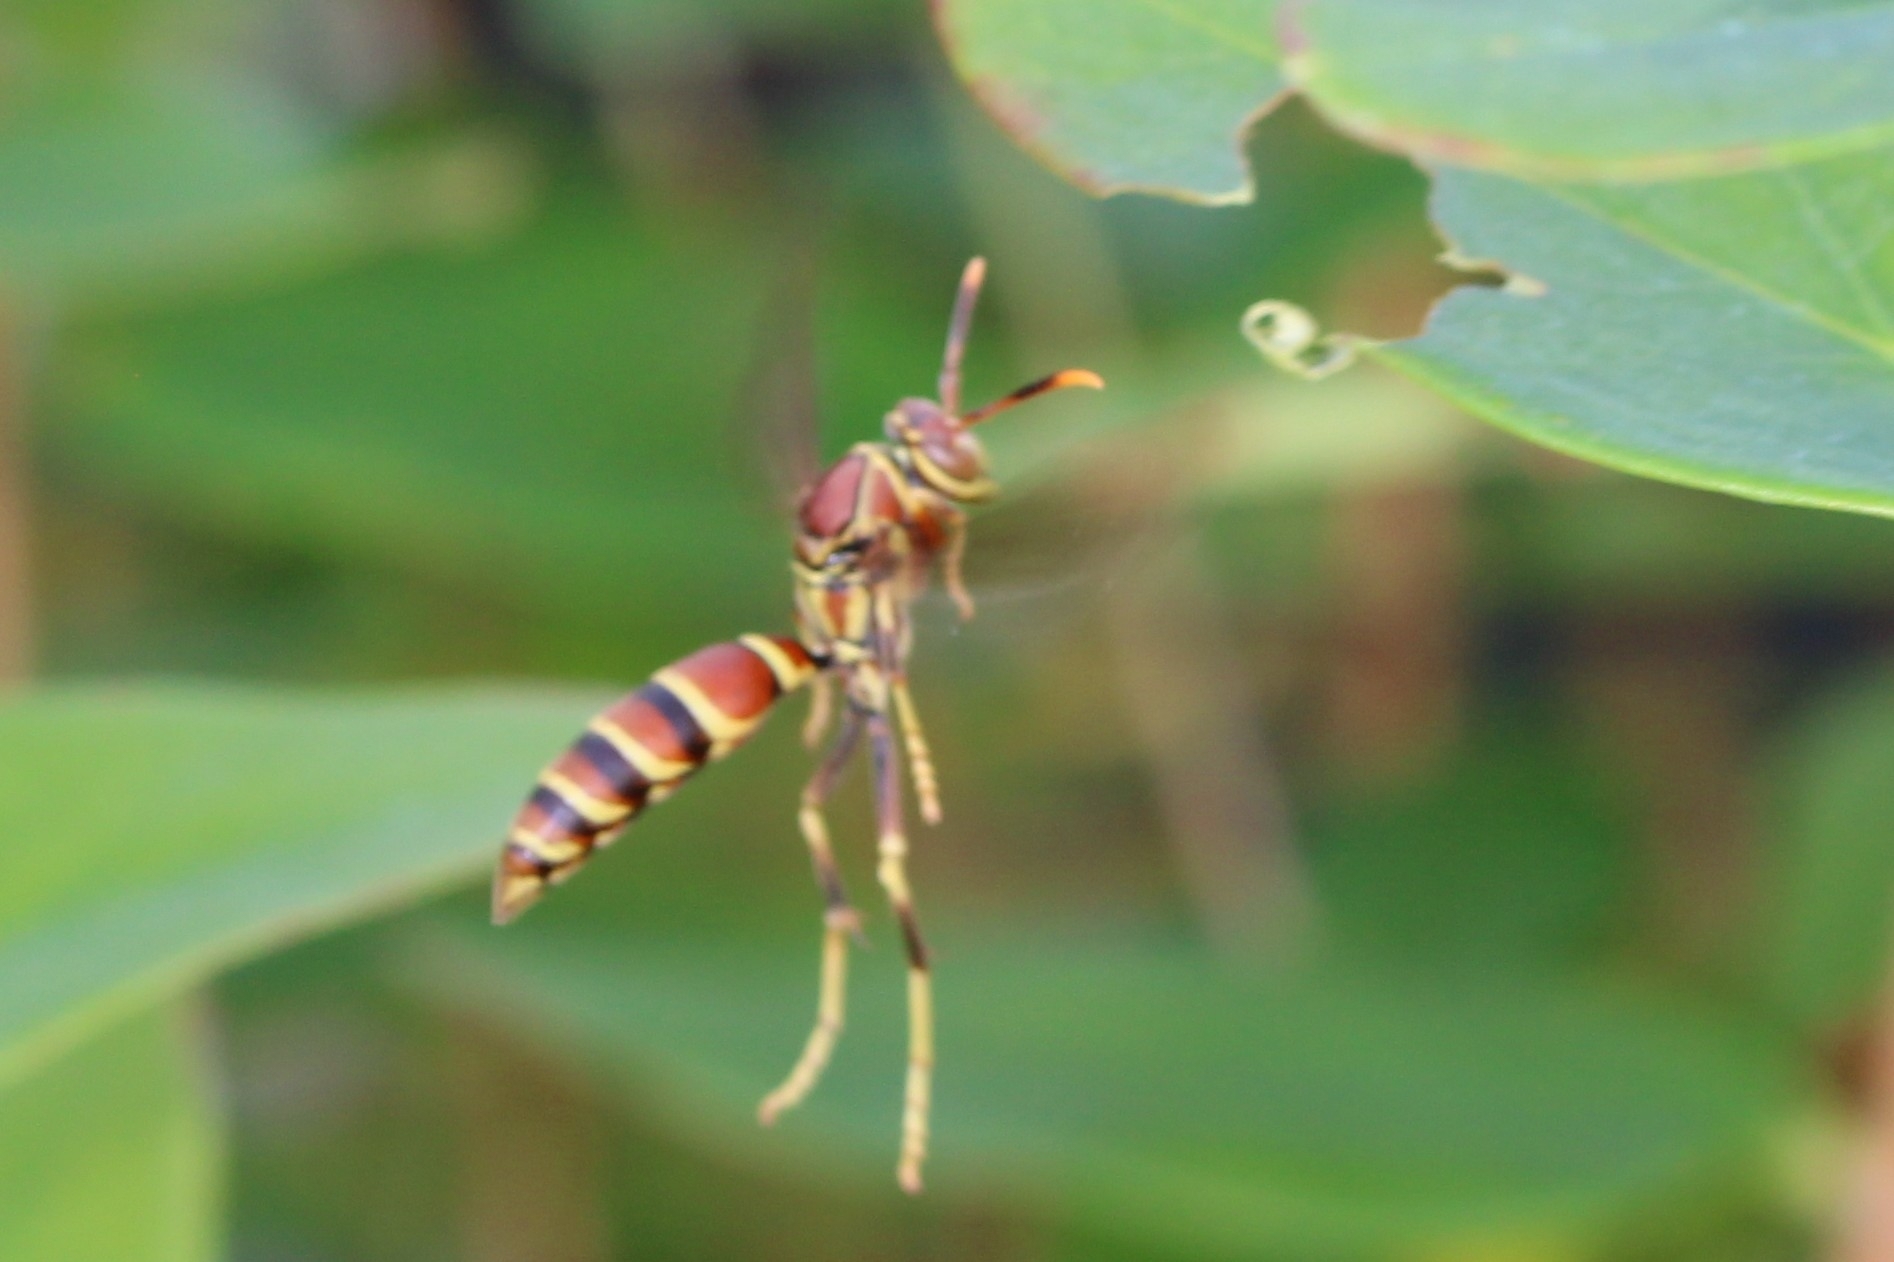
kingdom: Animalia
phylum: Arthropoda
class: Insecta
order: Hymenoptera
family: Eumenidae
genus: Polistes
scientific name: Polistes exclamans
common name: Paper wasp
